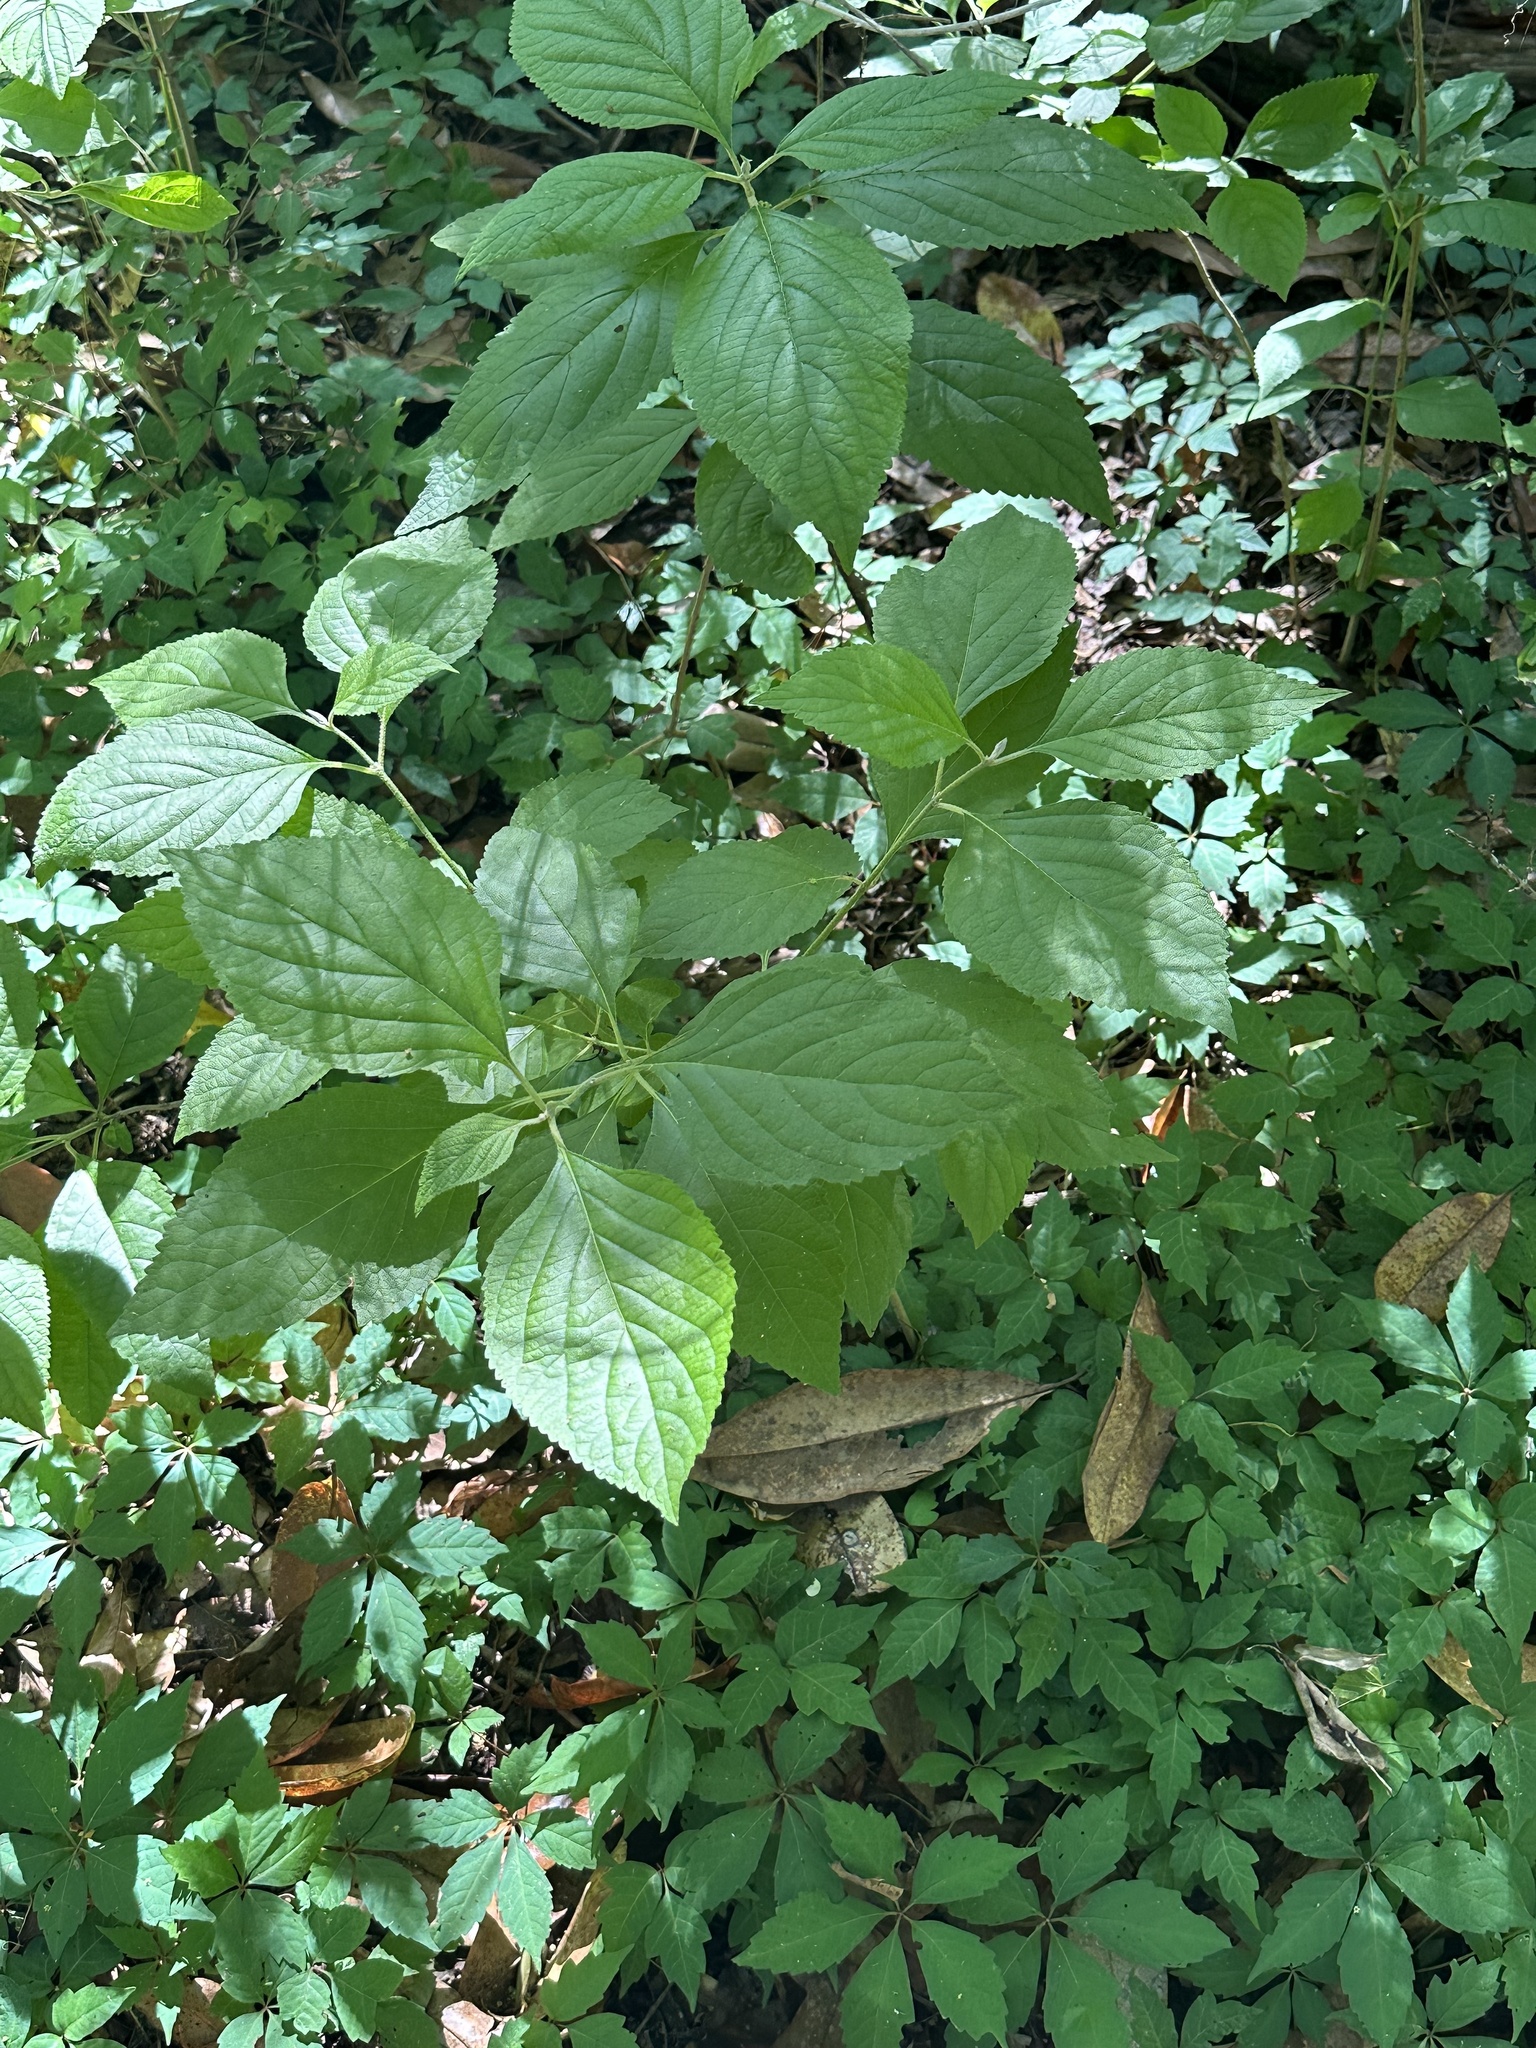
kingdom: Plantae
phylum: Tracheophyta
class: Magnoliopsida
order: Lamiales
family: Lamiaceae
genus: Callicarpa
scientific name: Callicarpa americana
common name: American beautyberry
